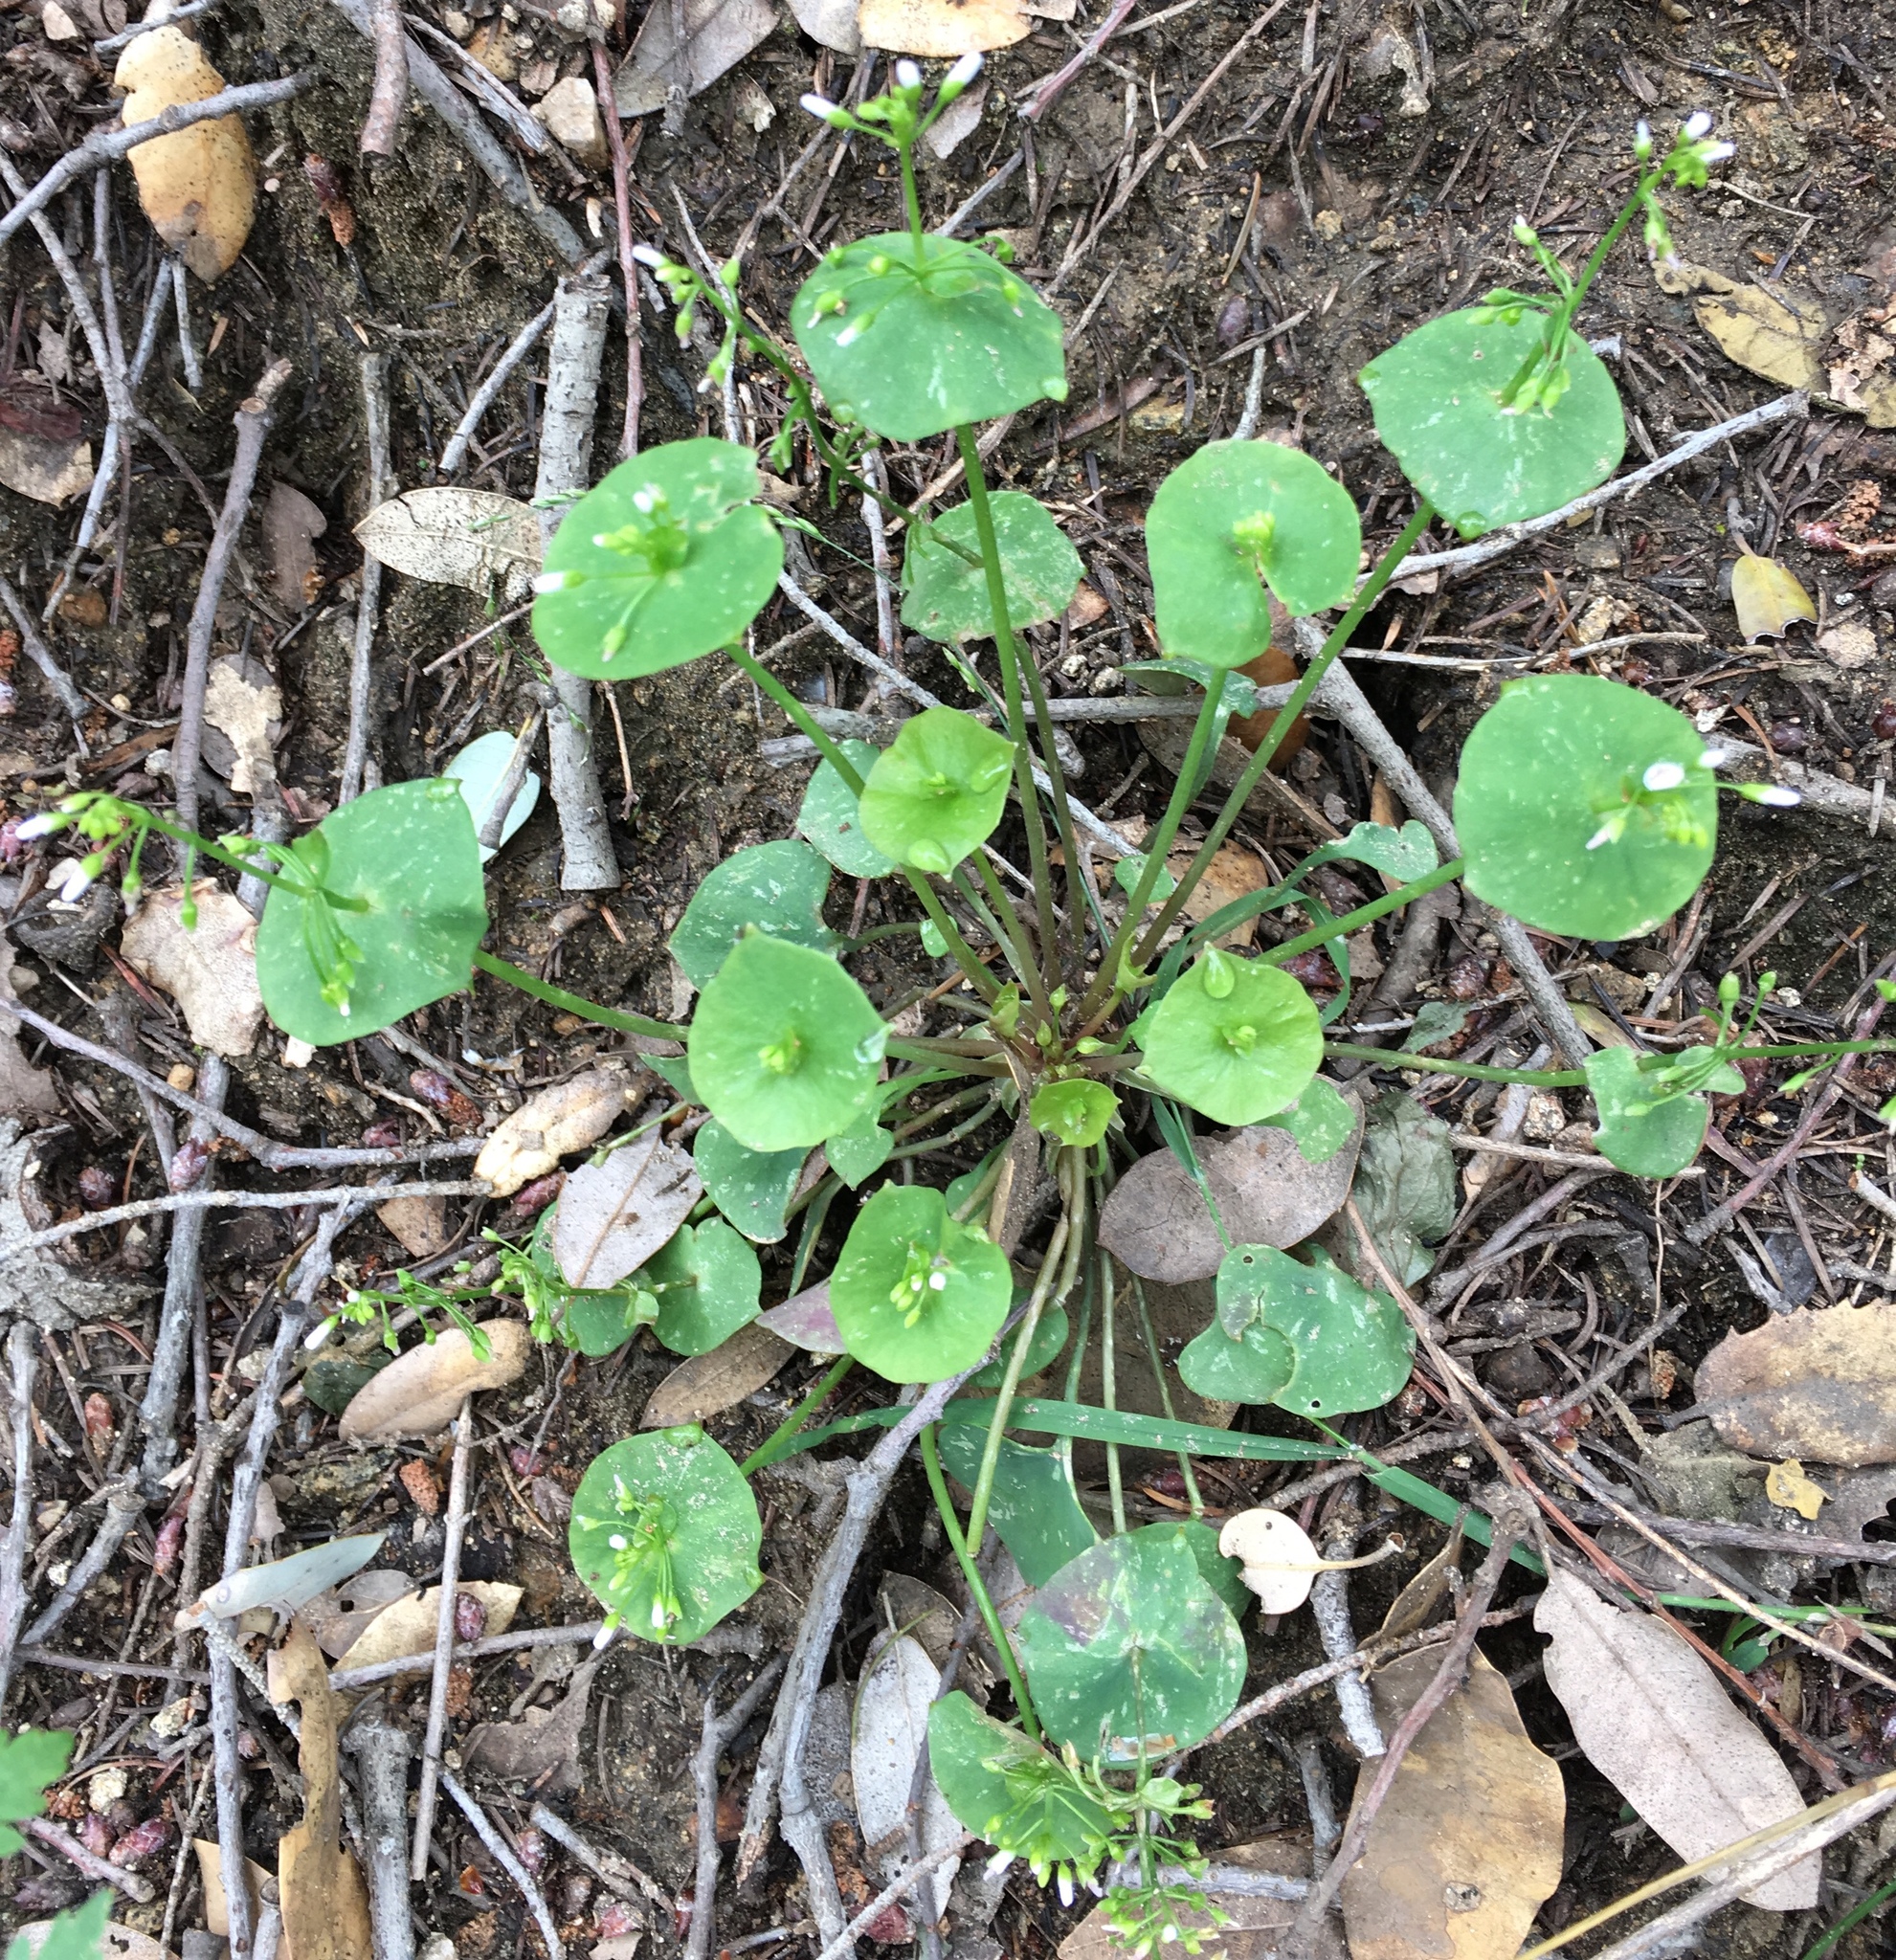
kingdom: Plantae
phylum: Tracheophyta
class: Magnoliopsida
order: Caryophyllales
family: Montiaceae
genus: Claytonia
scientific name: Claytonia perfoliata
